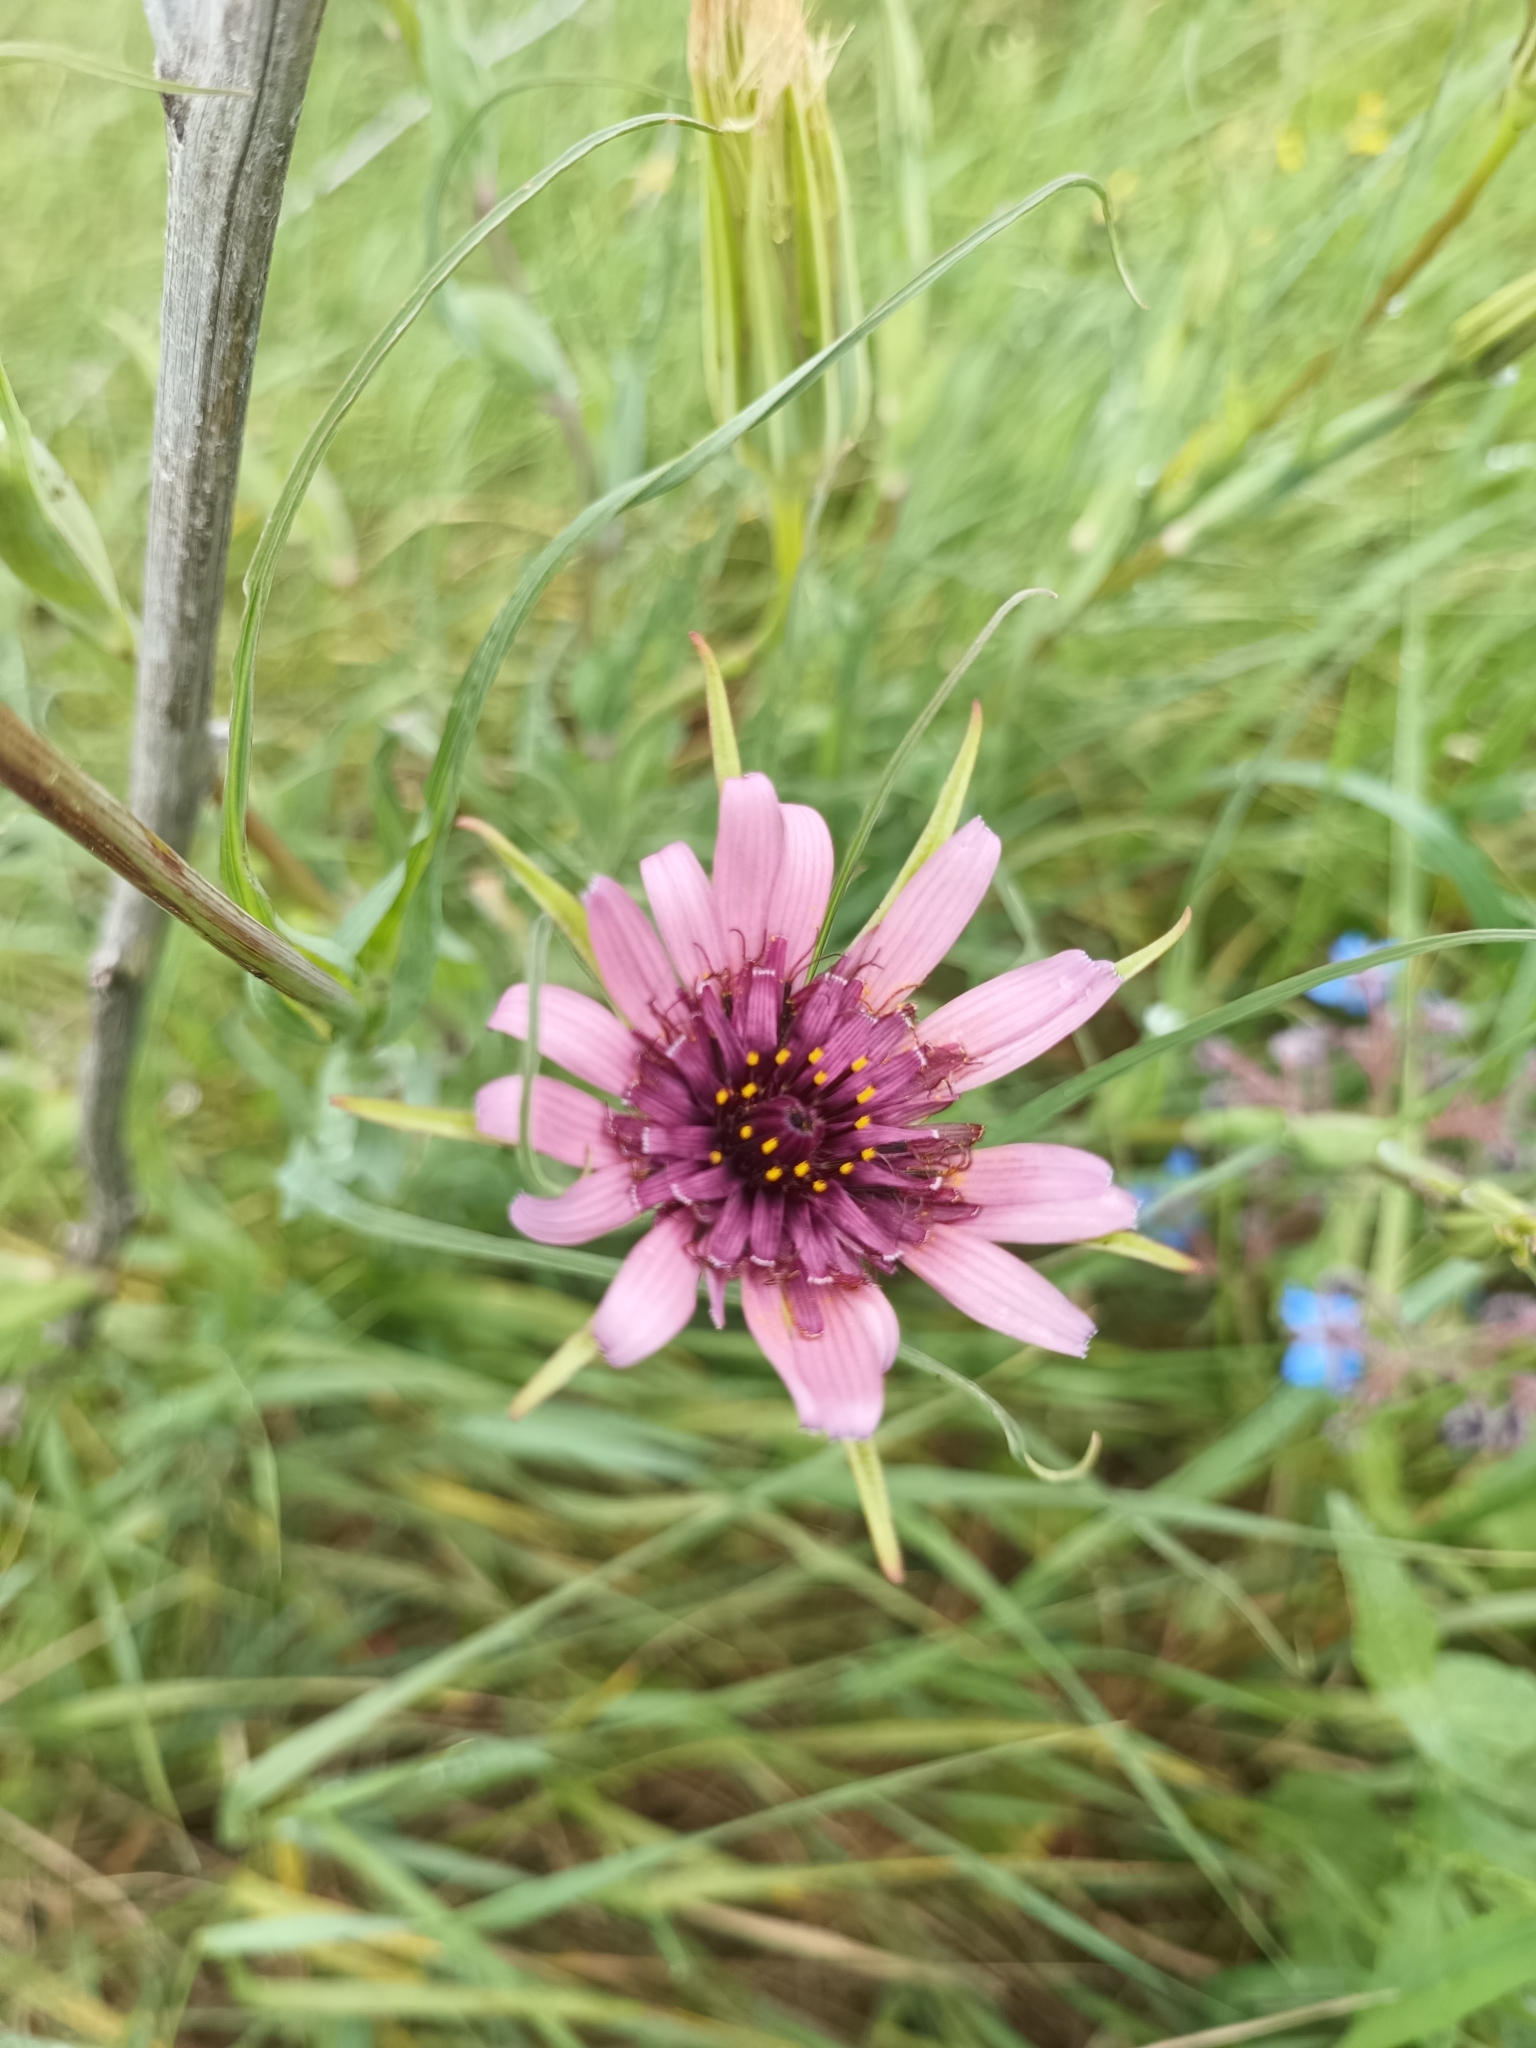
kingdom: Plantae
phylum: Tracheophyta
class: Magnoliopsida
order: Asterales
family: Asteraceae
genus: Tragopogon
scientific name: Tragopogon porrifolius
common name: Salsify
